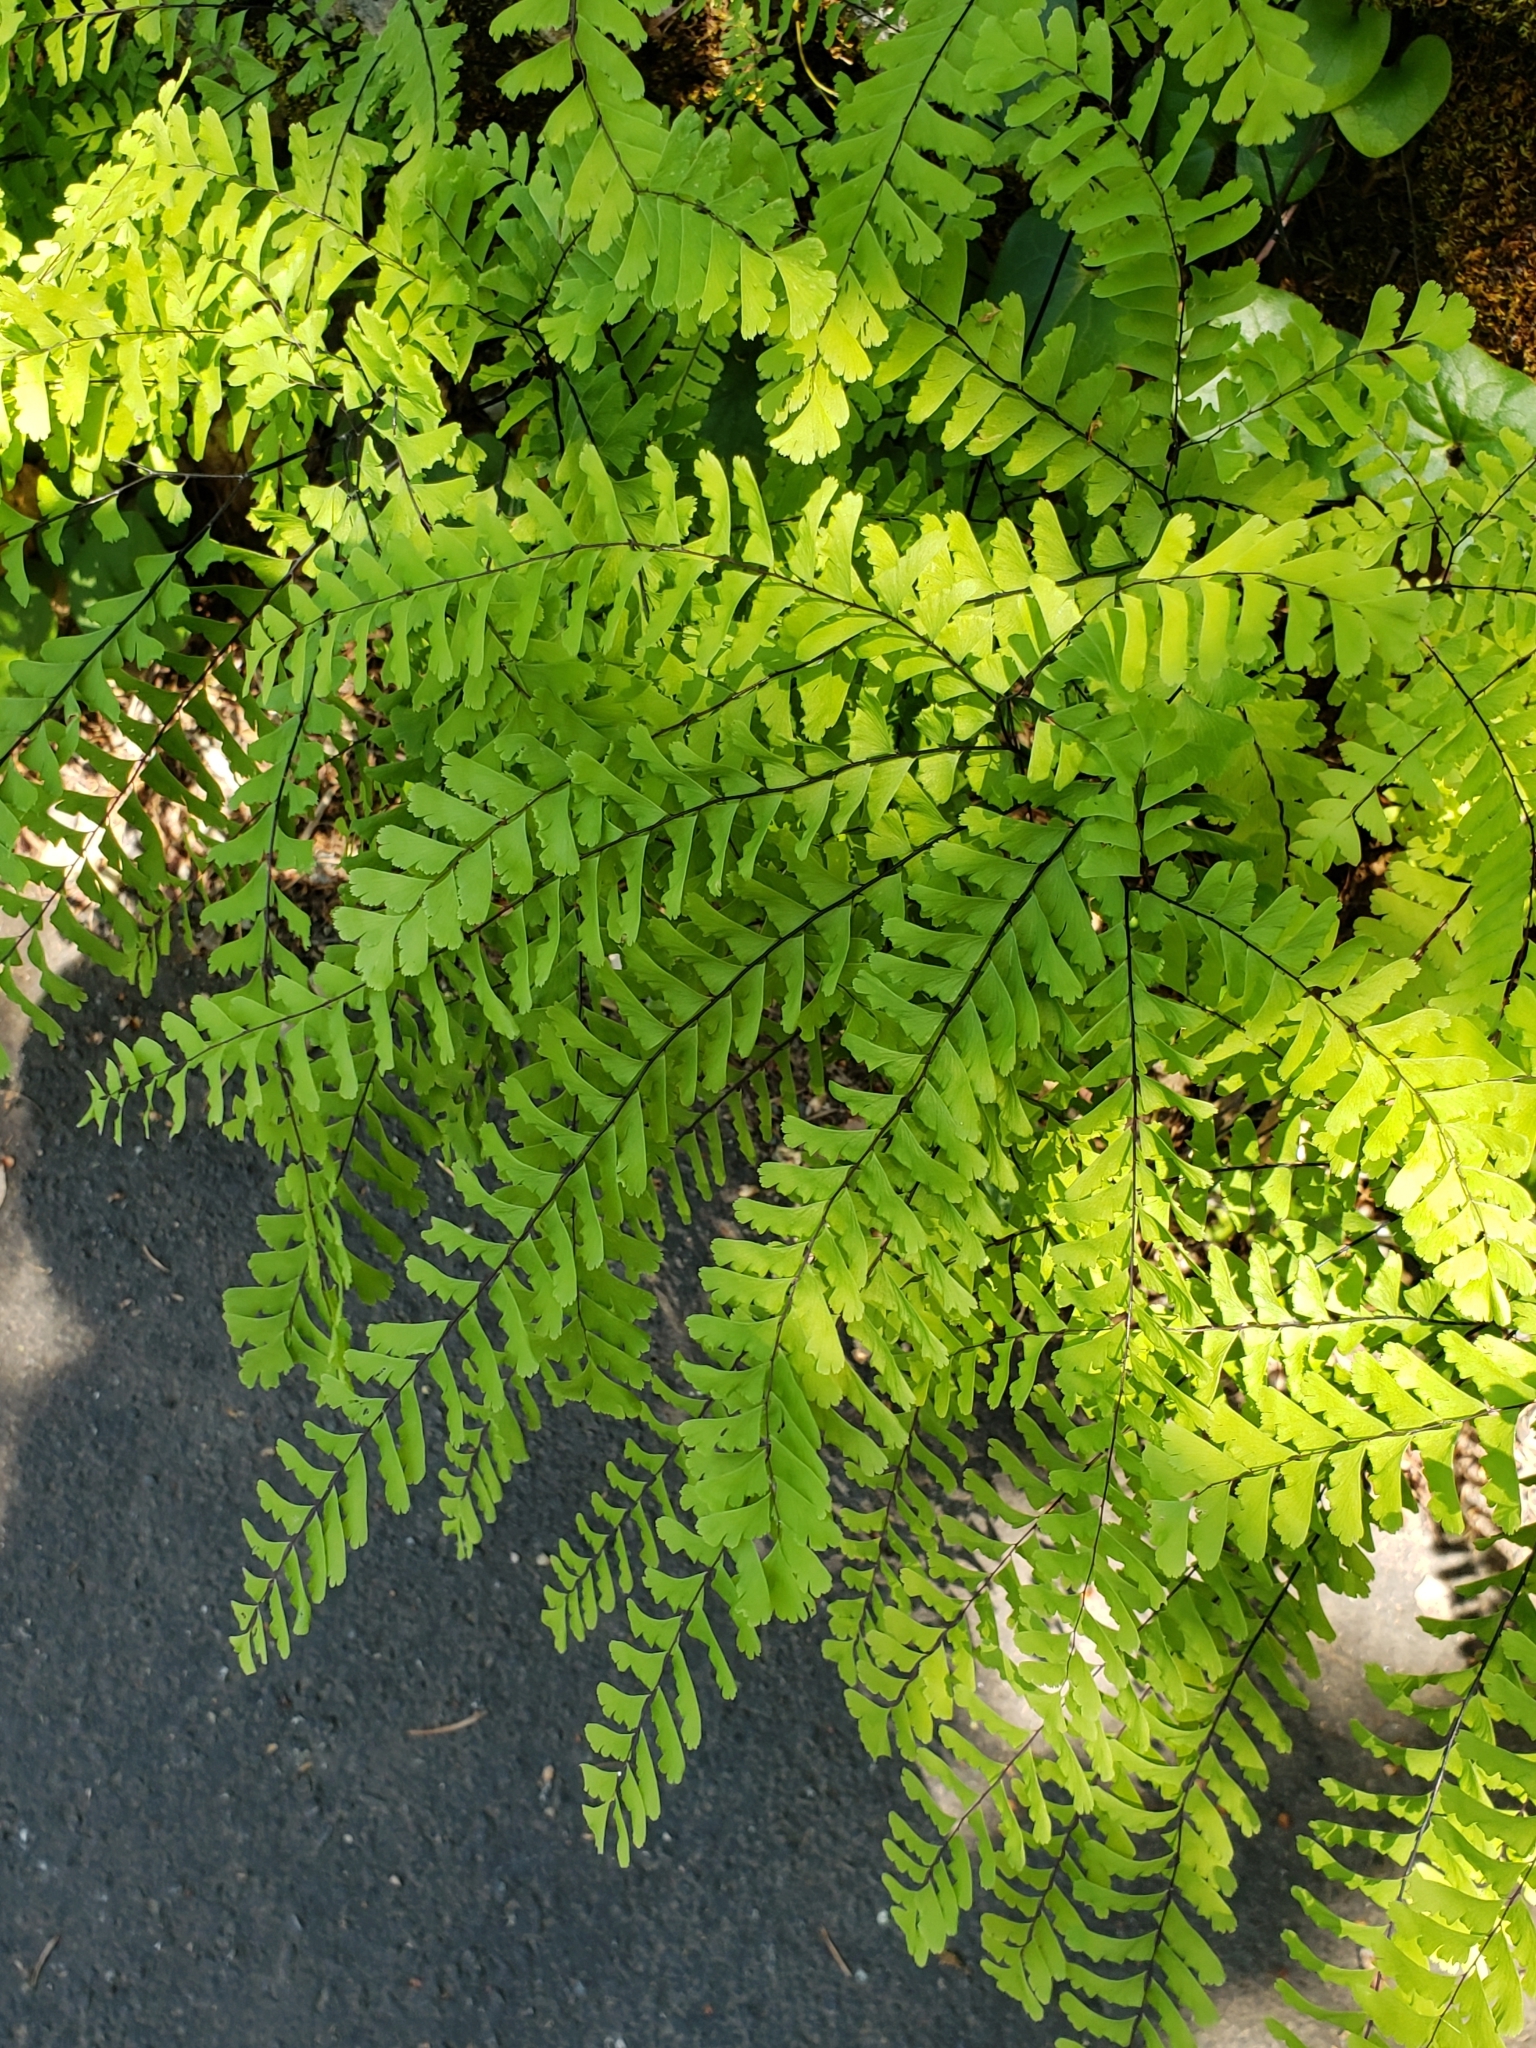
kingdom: Plantae
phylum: Tracheophyta
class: Polypodiopsida
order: Polypodiales
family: Pteridaceae
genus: Adiantum
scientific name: Adiantum aleuticum
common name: Aleutian maidenhair fern
